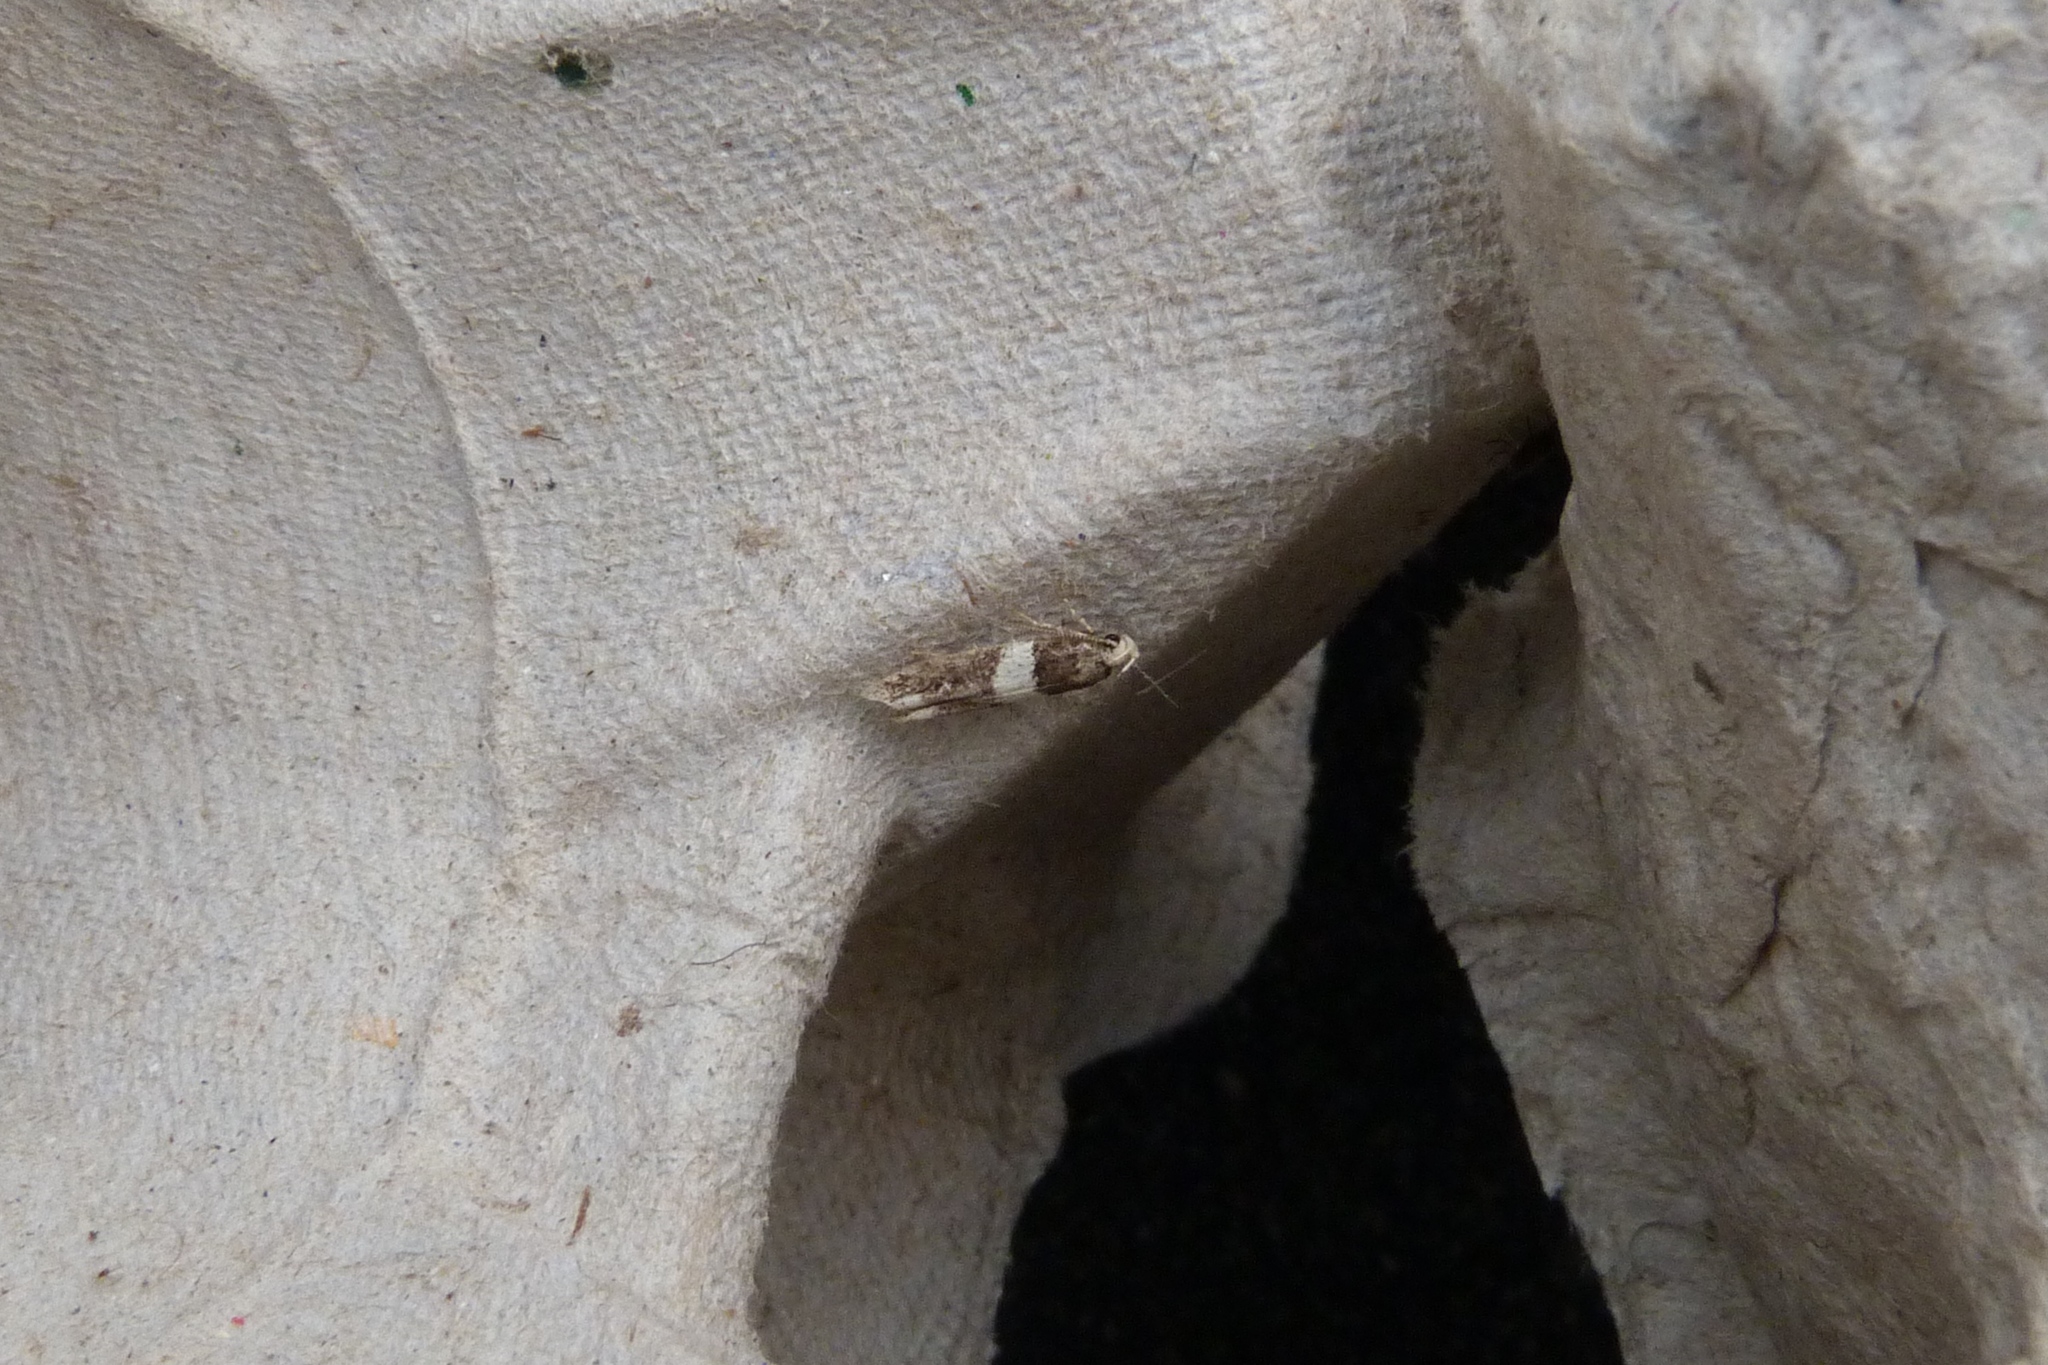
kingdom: Animalia
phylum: Arthropoda
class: Insecta
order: Lepidoptera
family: Gelechiidae
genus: Recurvaria
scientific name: Recurvaria leucatella
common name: White-barred groundling
